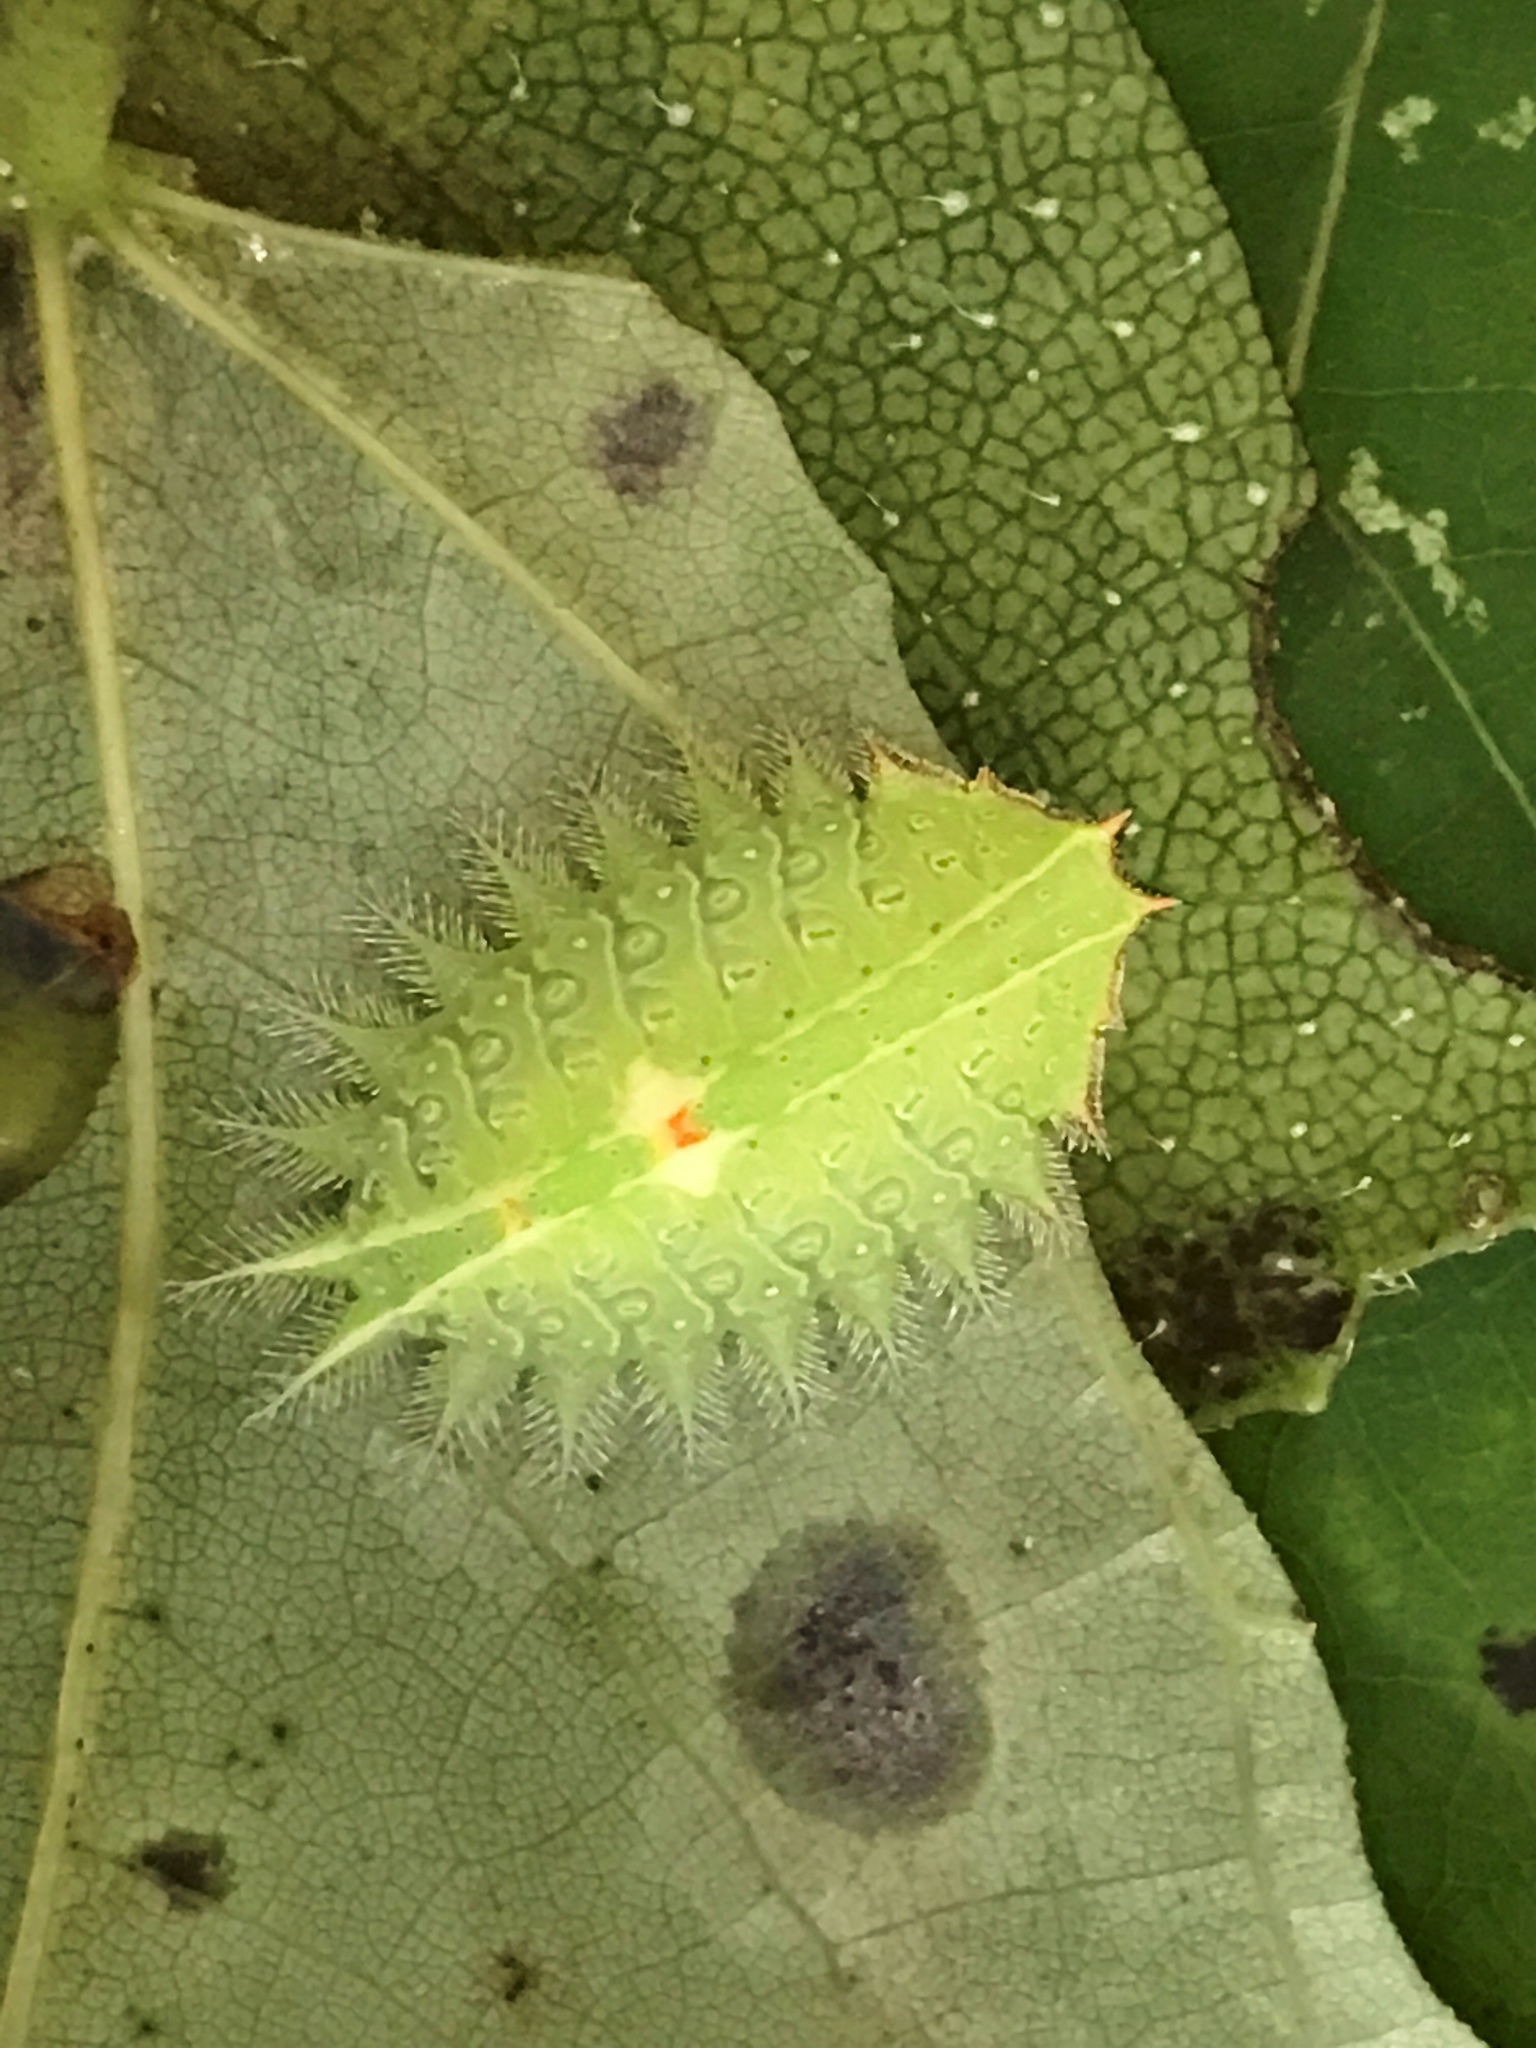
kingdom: Animalia
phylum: Arthropoda
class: Insecta
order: Lepidoptera
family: Limacodidae
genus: Isa
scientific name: Isa textula
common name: Crowned slug moth
